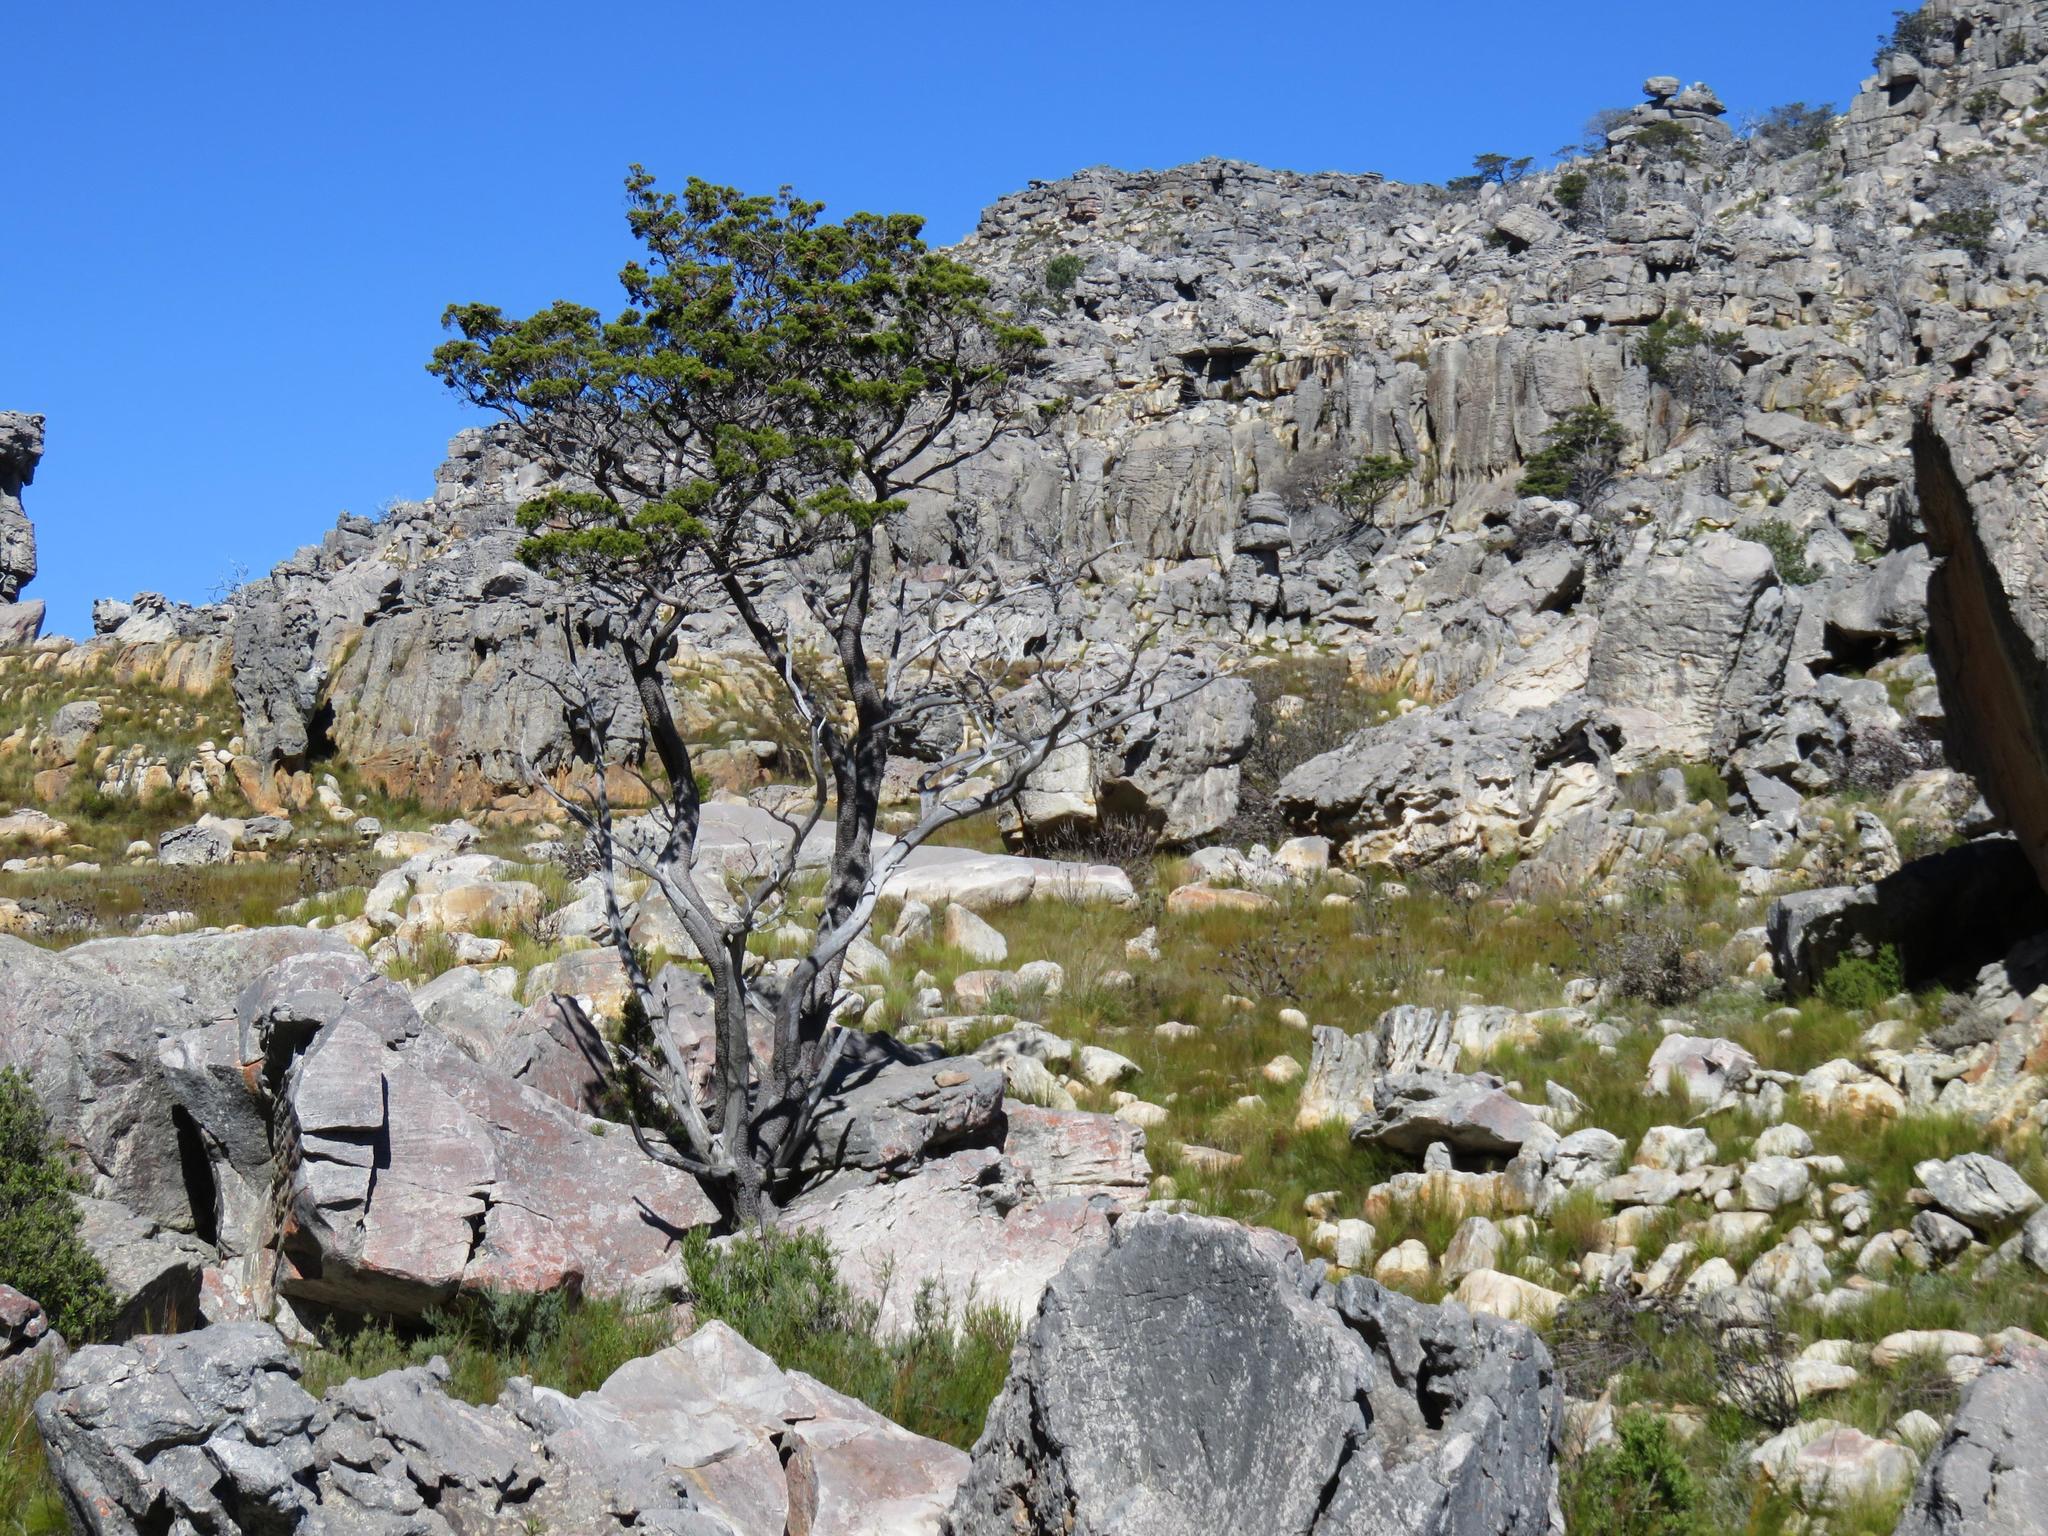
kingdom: Plantae
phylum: Tracheophyta
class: Pinopsida
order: Pinales
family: Cupressaceae
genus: Widdringtonia
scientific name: Widdringtonia nodiflora
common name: Cape cypress
